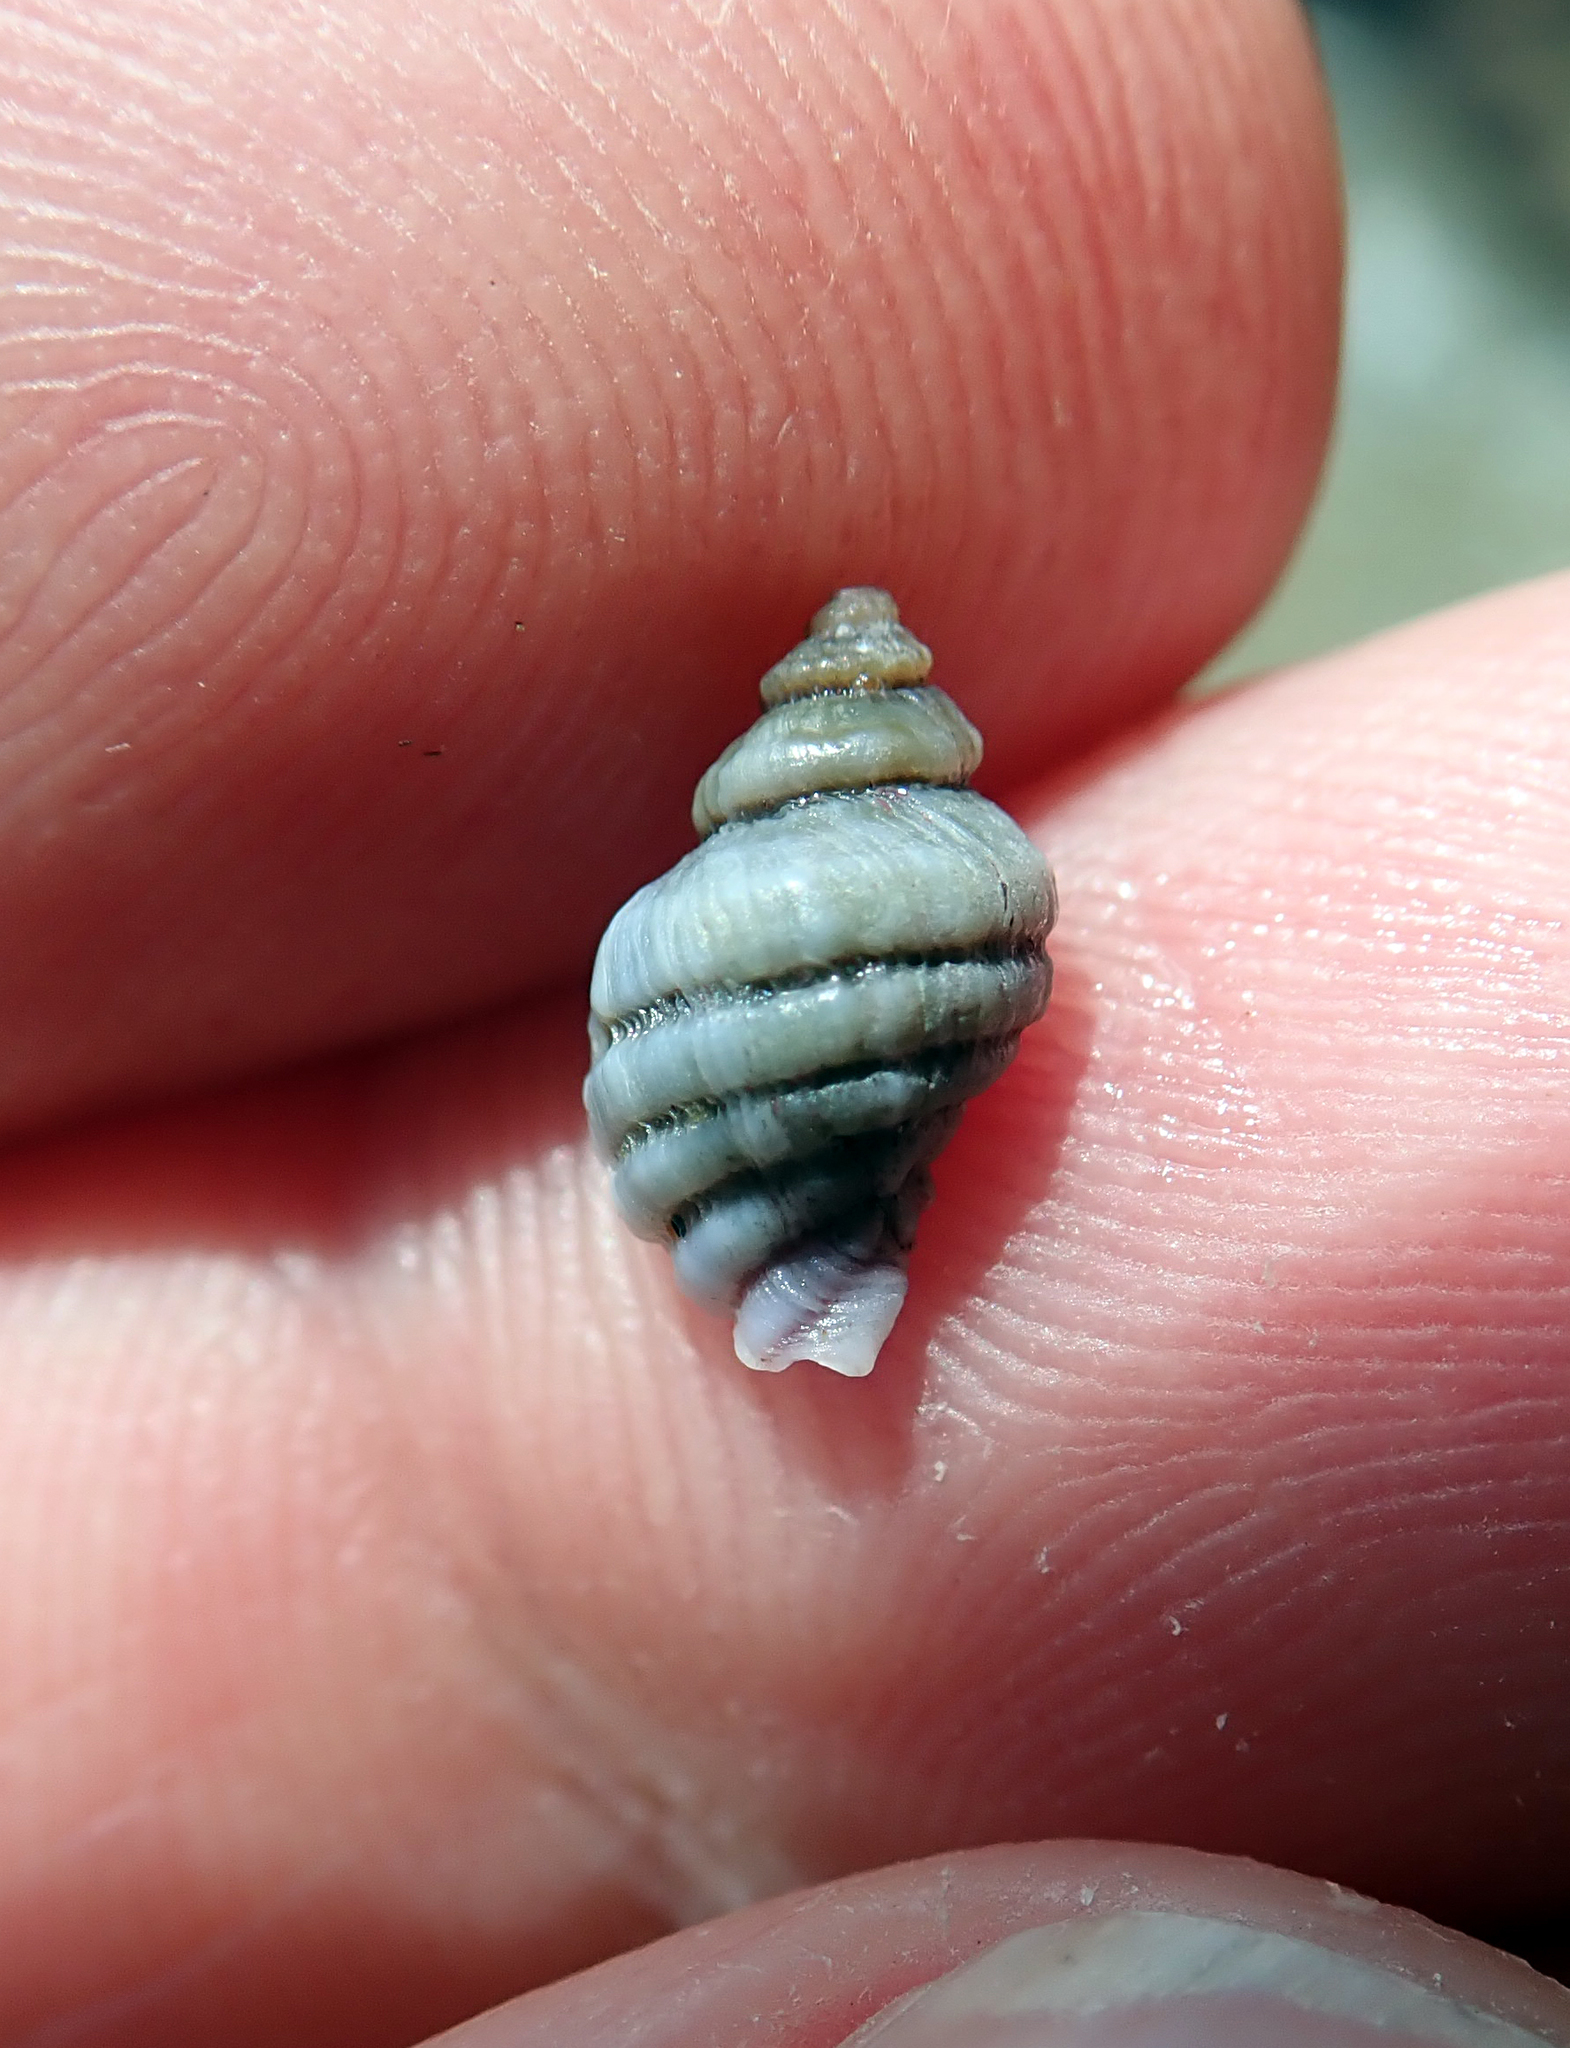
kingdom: Animalia
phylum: Mollusca
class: Gastropoda
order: Neogastropoda
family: Muricidae
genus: Paratrophon
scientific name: Paratrophon cheesemani
